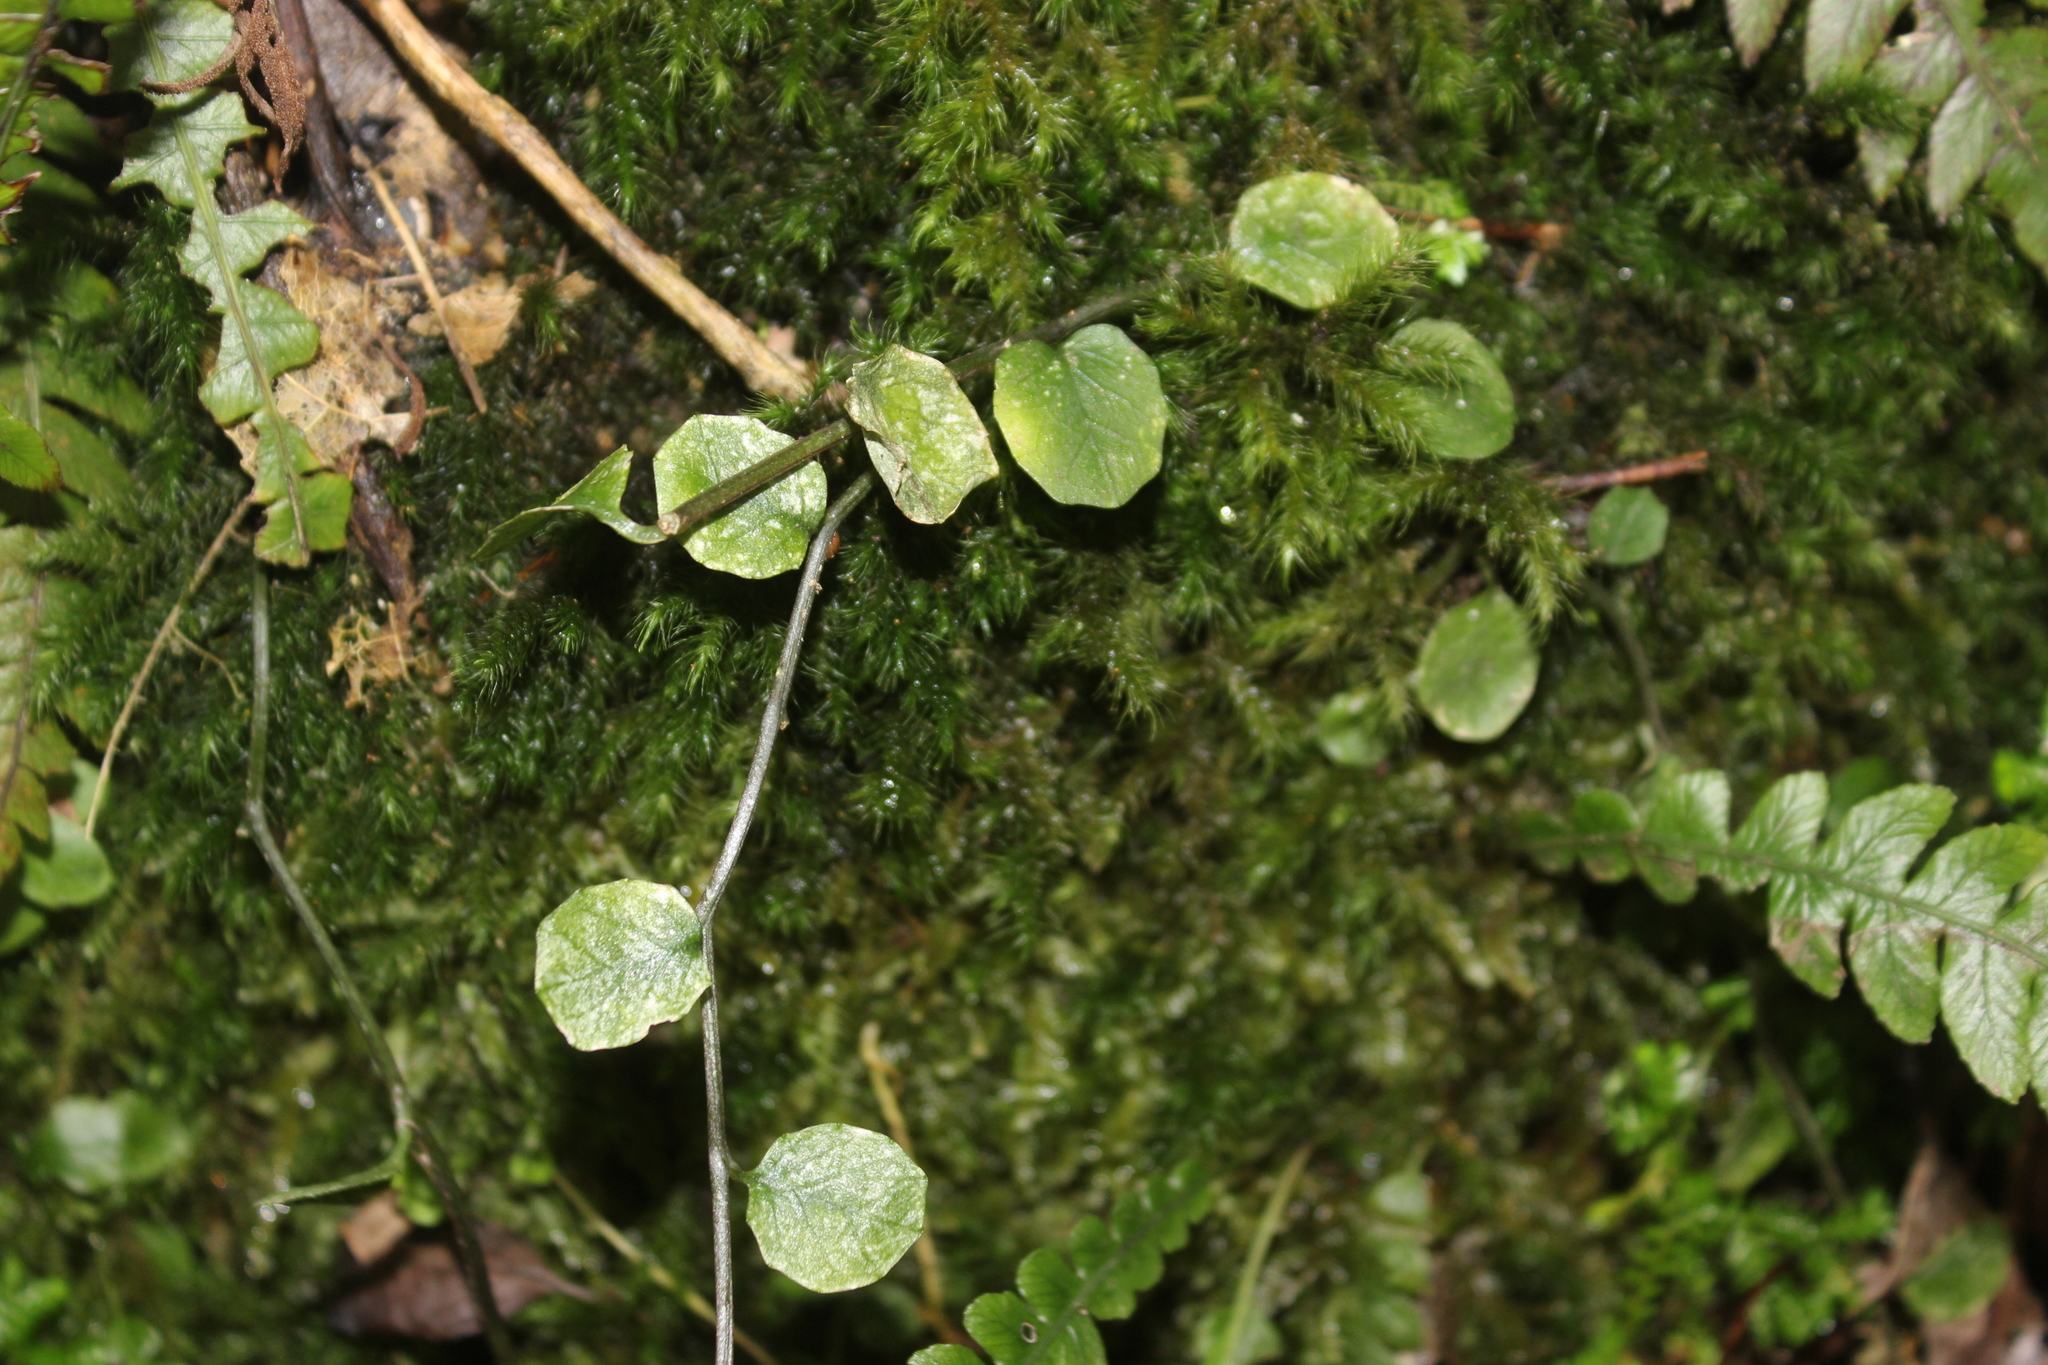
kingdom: Plantae
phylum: Tracheophyta
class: Magnoliopsida
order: Asterales
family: Campanulaceae
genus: Lobelia
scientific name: Lobelia angulata
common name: Lawn lobelia
